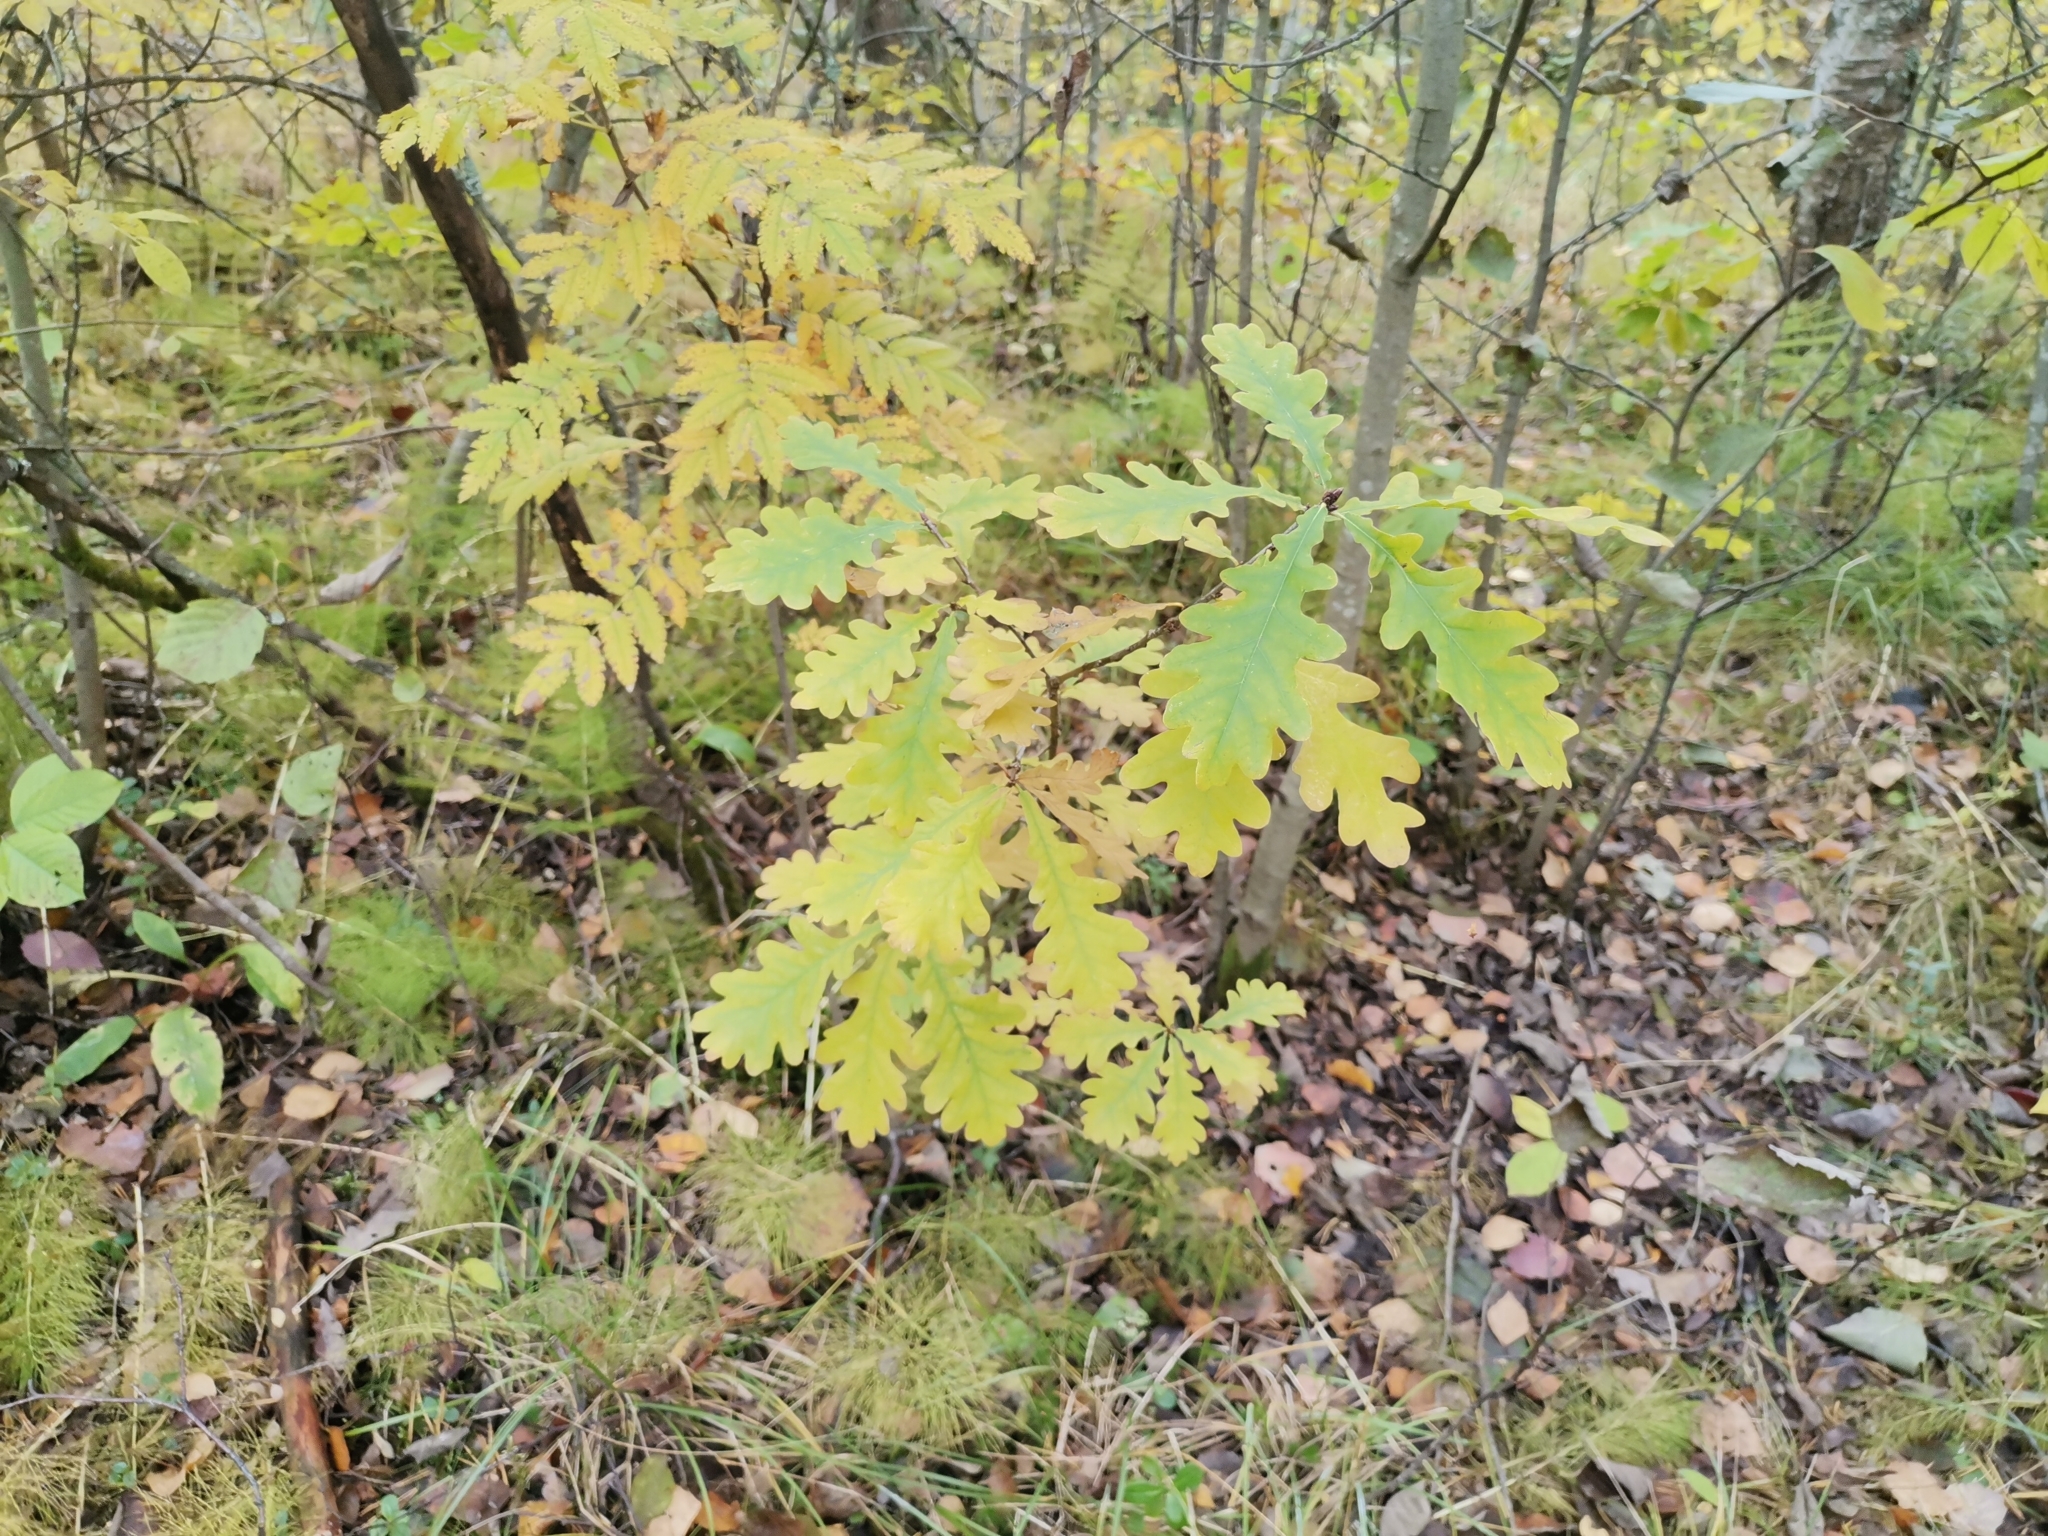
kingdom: Plantae
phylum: Tracheophyta
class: Magnoliopsida
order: Fagales
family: Fagaceae
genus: Quercus
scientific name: Quercus robur
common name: Pedunculate oak
